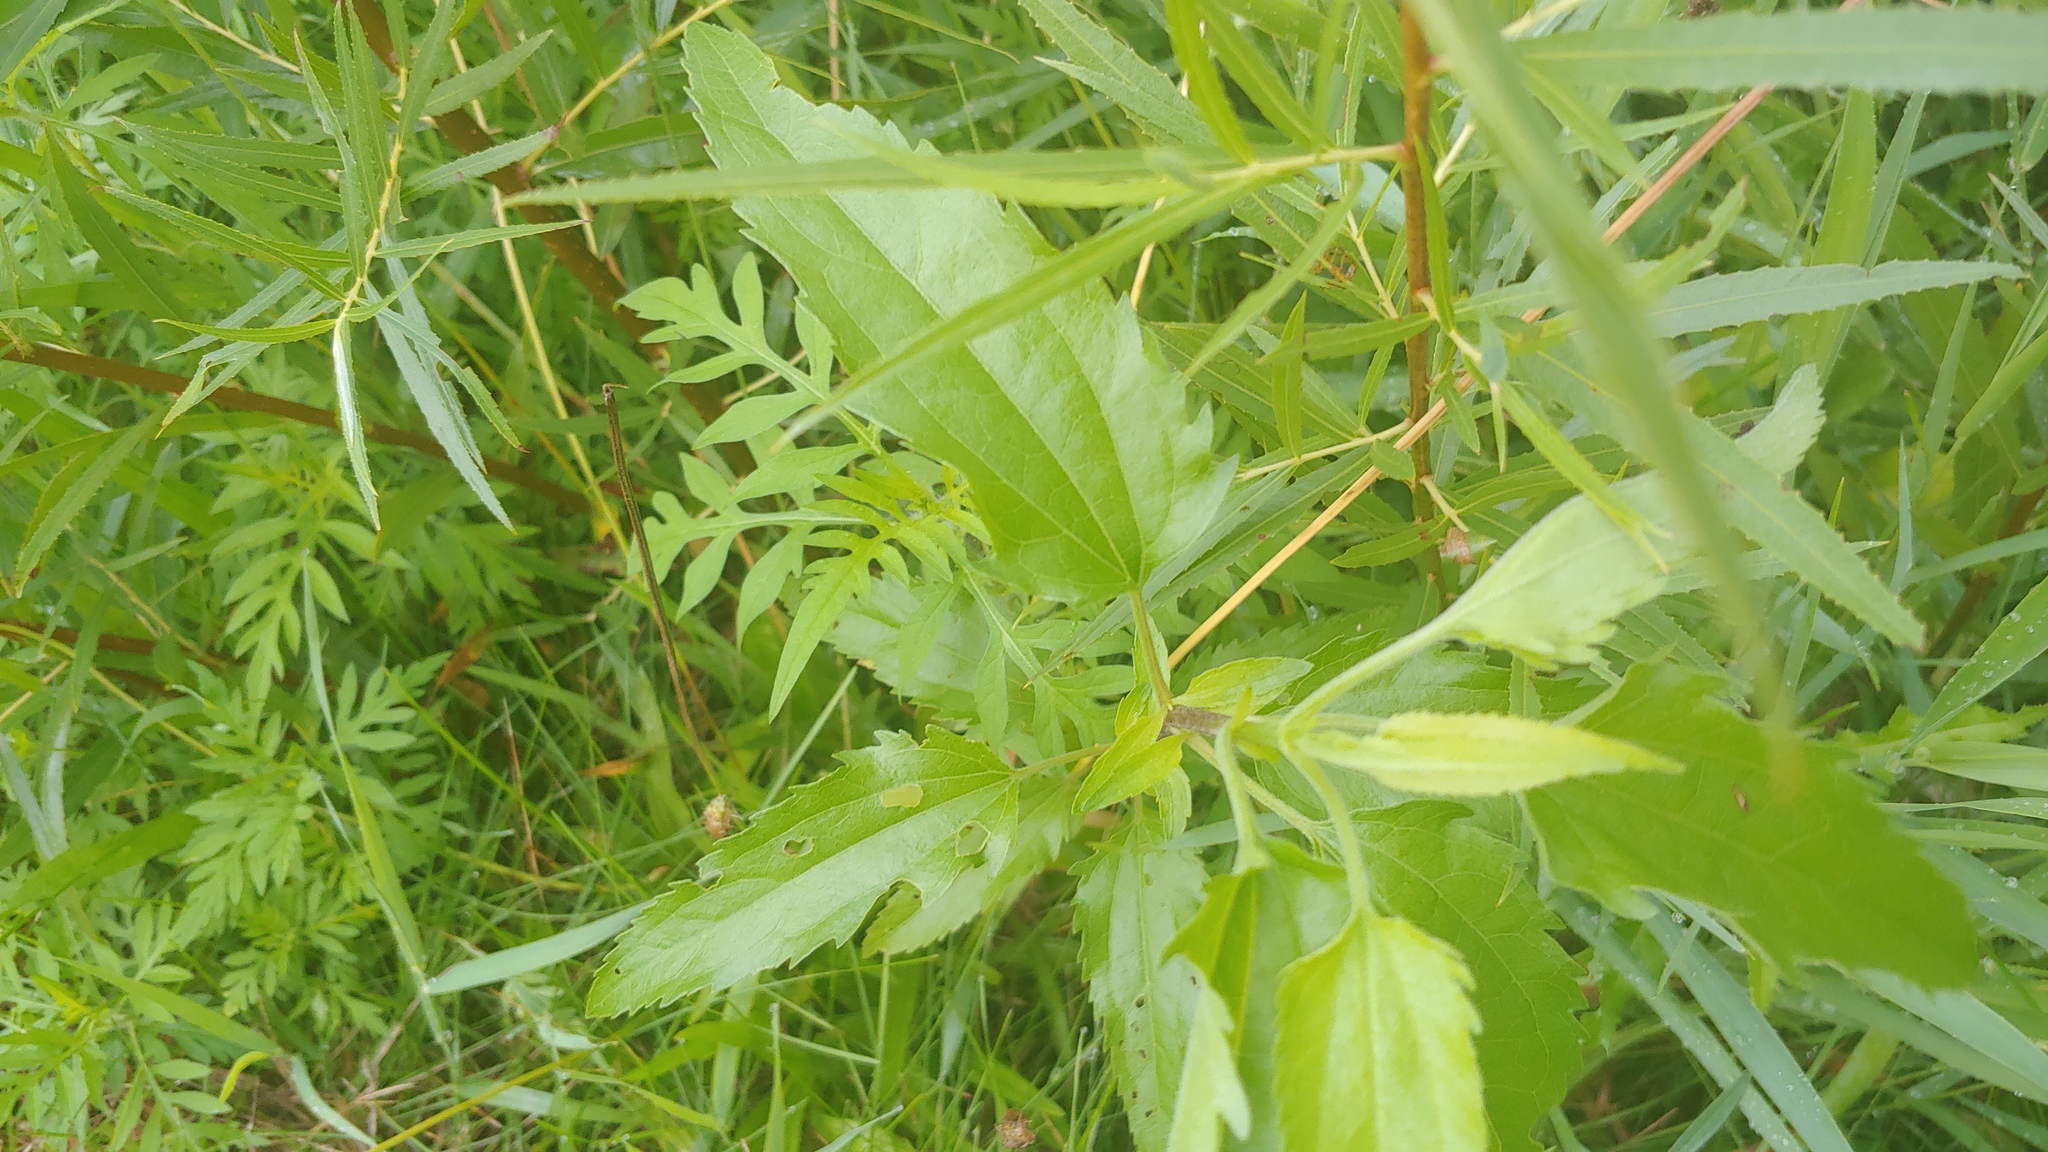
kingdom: Plantae
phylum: Tracheophyta
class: Magnoliopsida
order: Asterales
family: Asteraceae
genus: Eupatorium
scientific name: Eupatorium serotinum
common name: Late boneset
